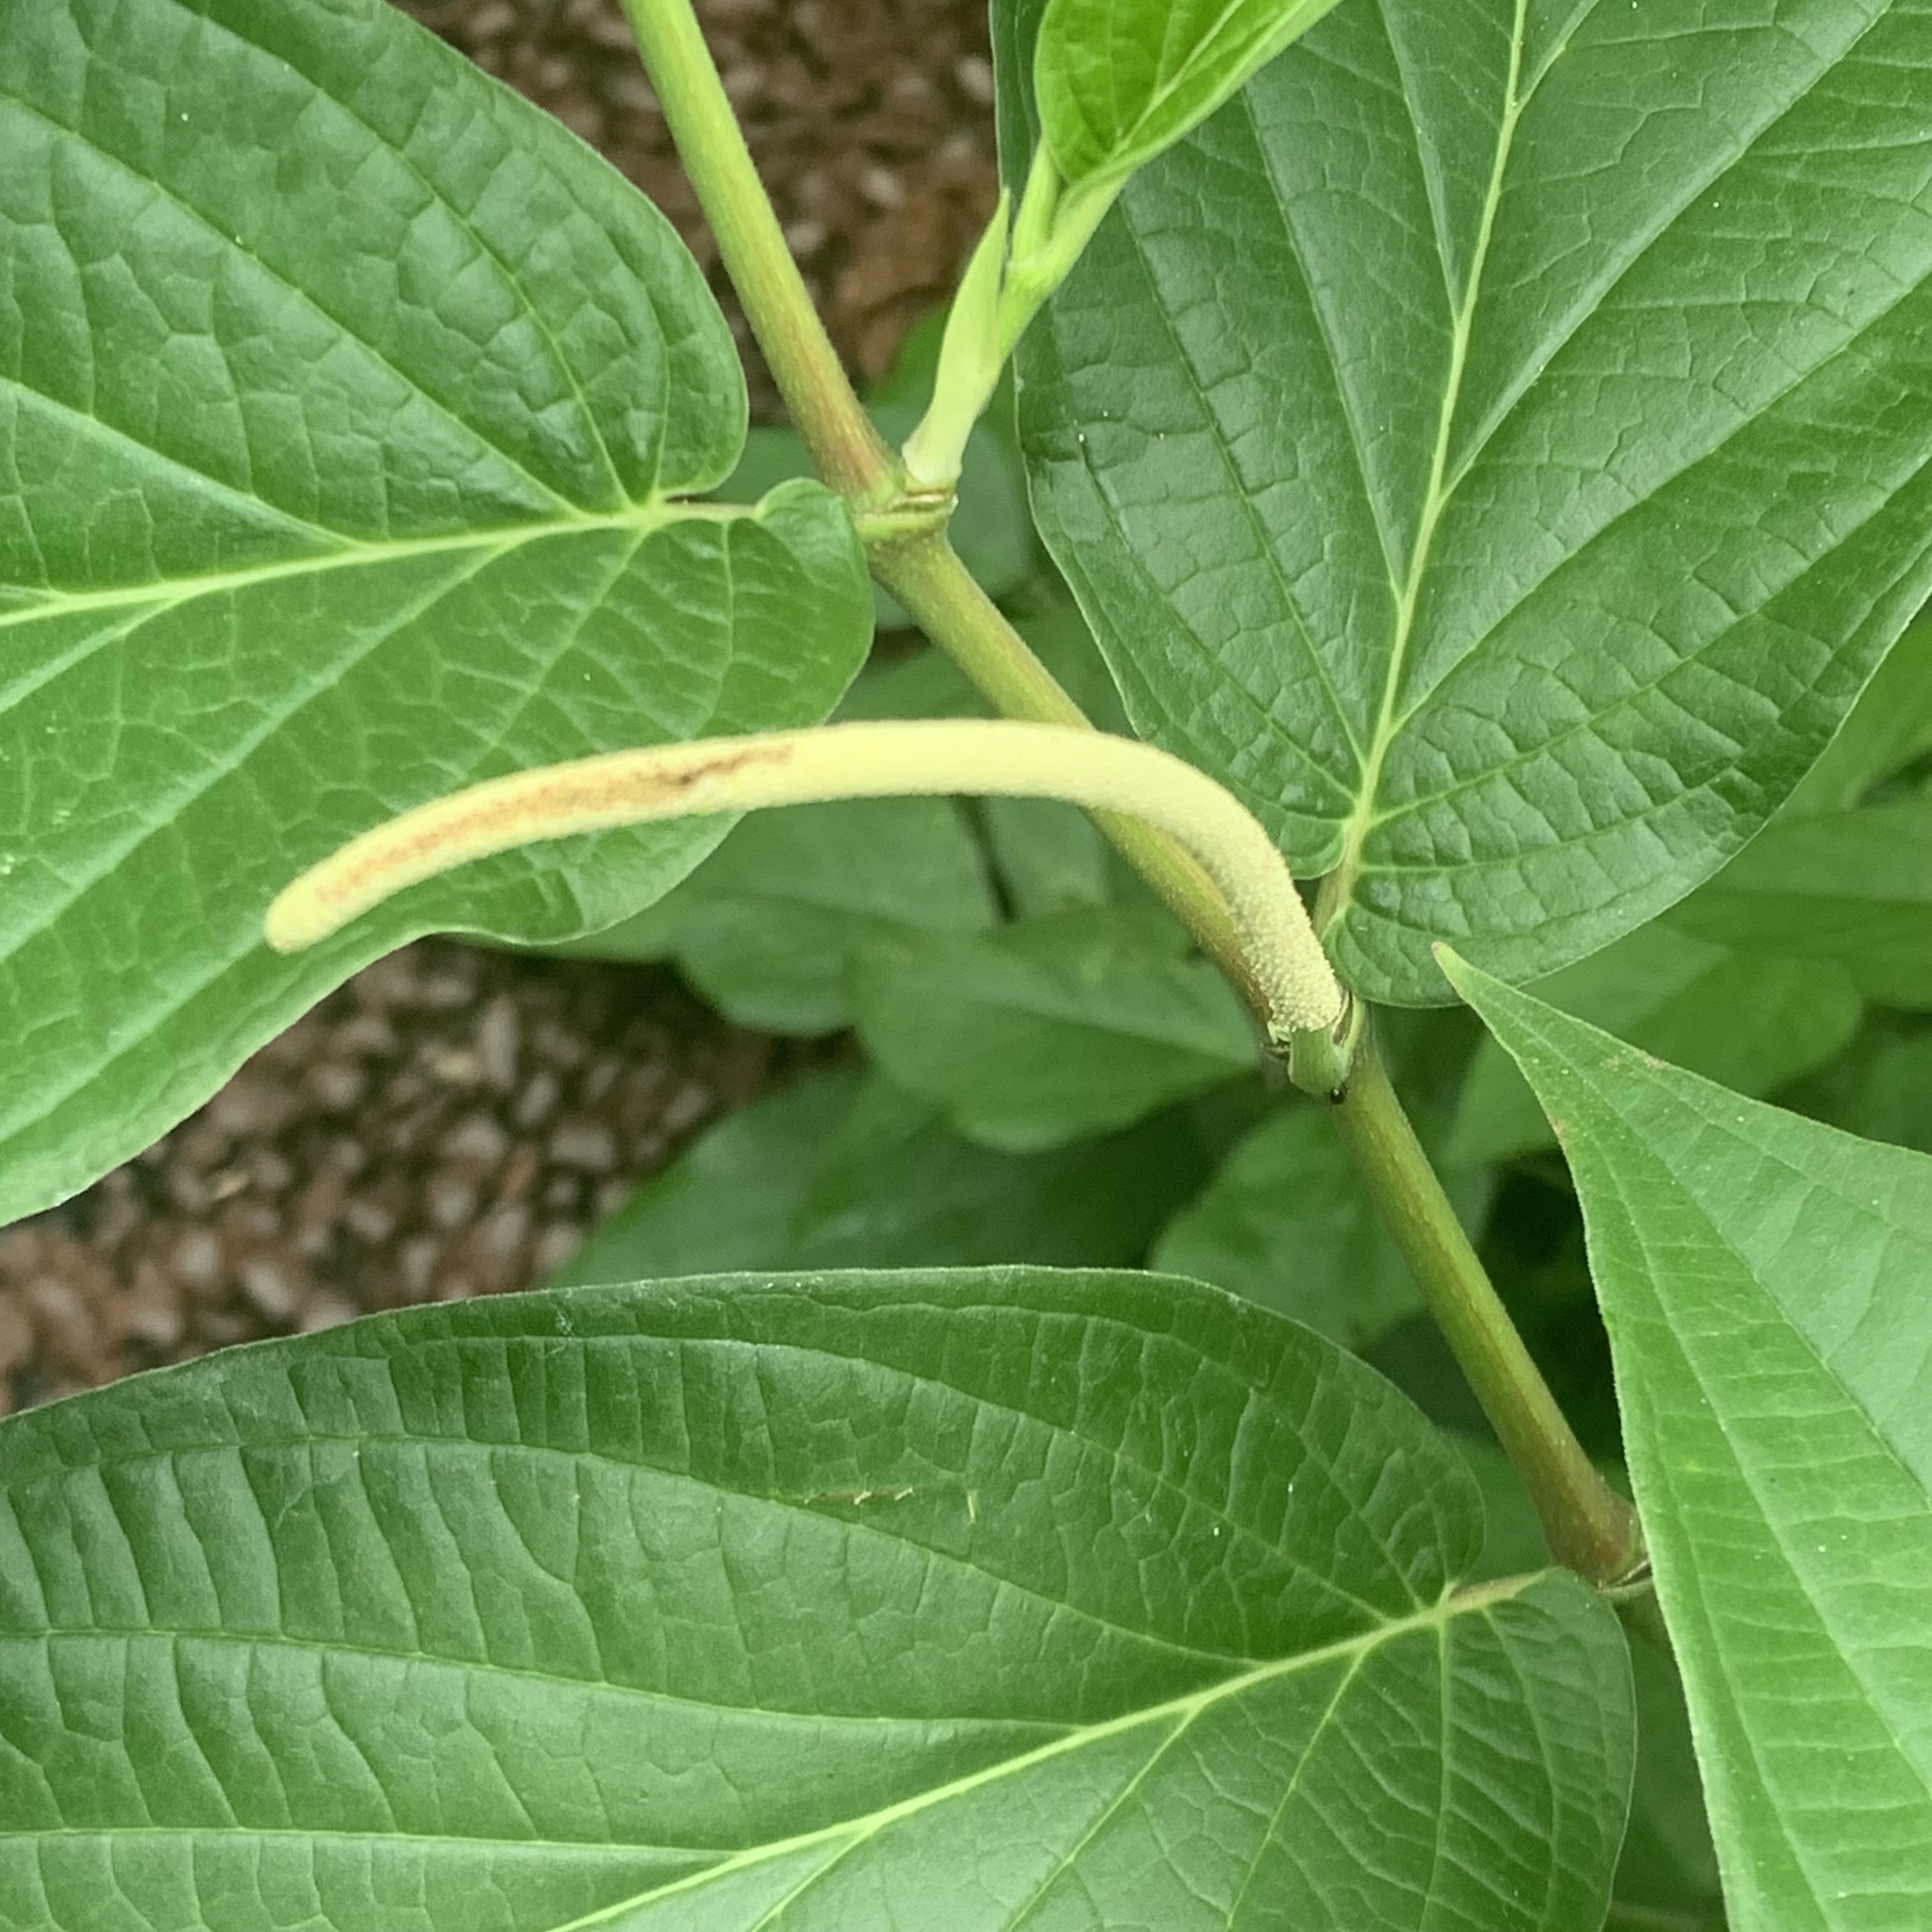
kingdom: Plantae
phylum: Tracheophyta
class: Magnoliopsida
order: Piperales
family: Piperaceae
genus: Piper
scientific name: Piper aduncum
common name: Spiked pepper
